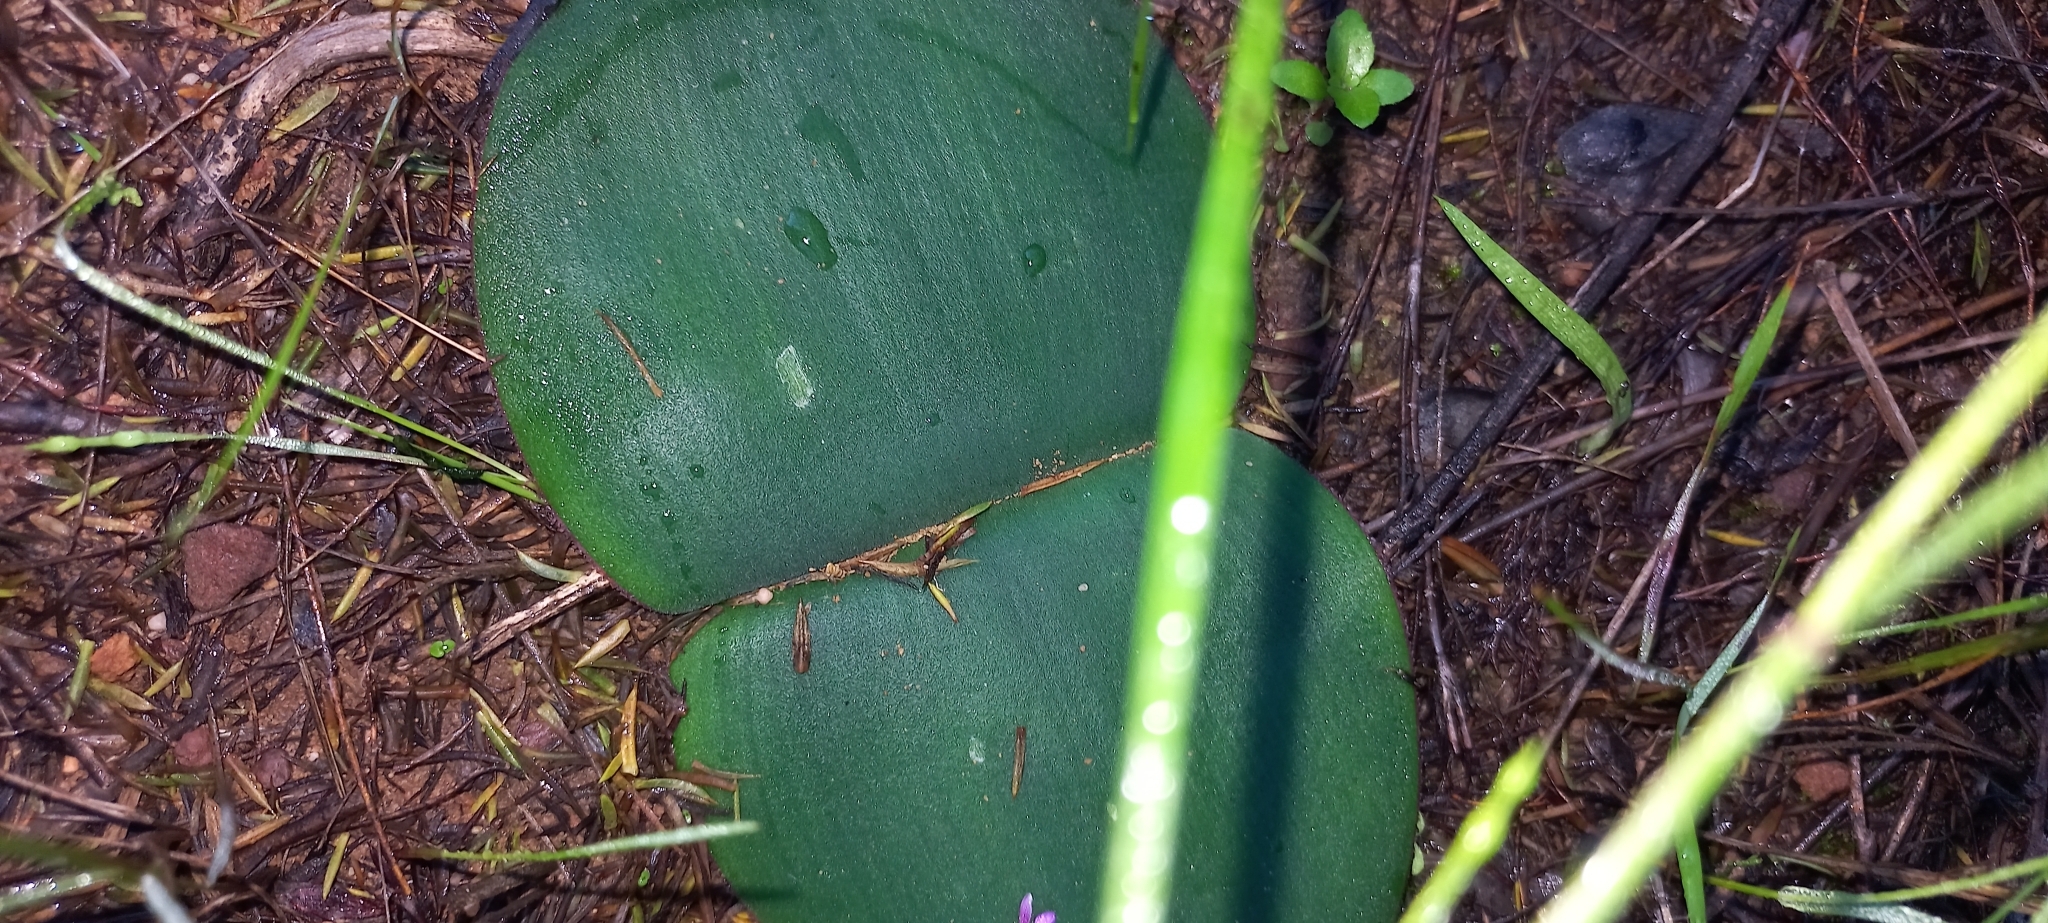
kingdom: Plantae
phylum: Tracheophyta
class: Liliopsida
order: Asparagales
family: Amaryllidaceae
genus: Haemanthus
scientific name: Haemanthus sanguineus
